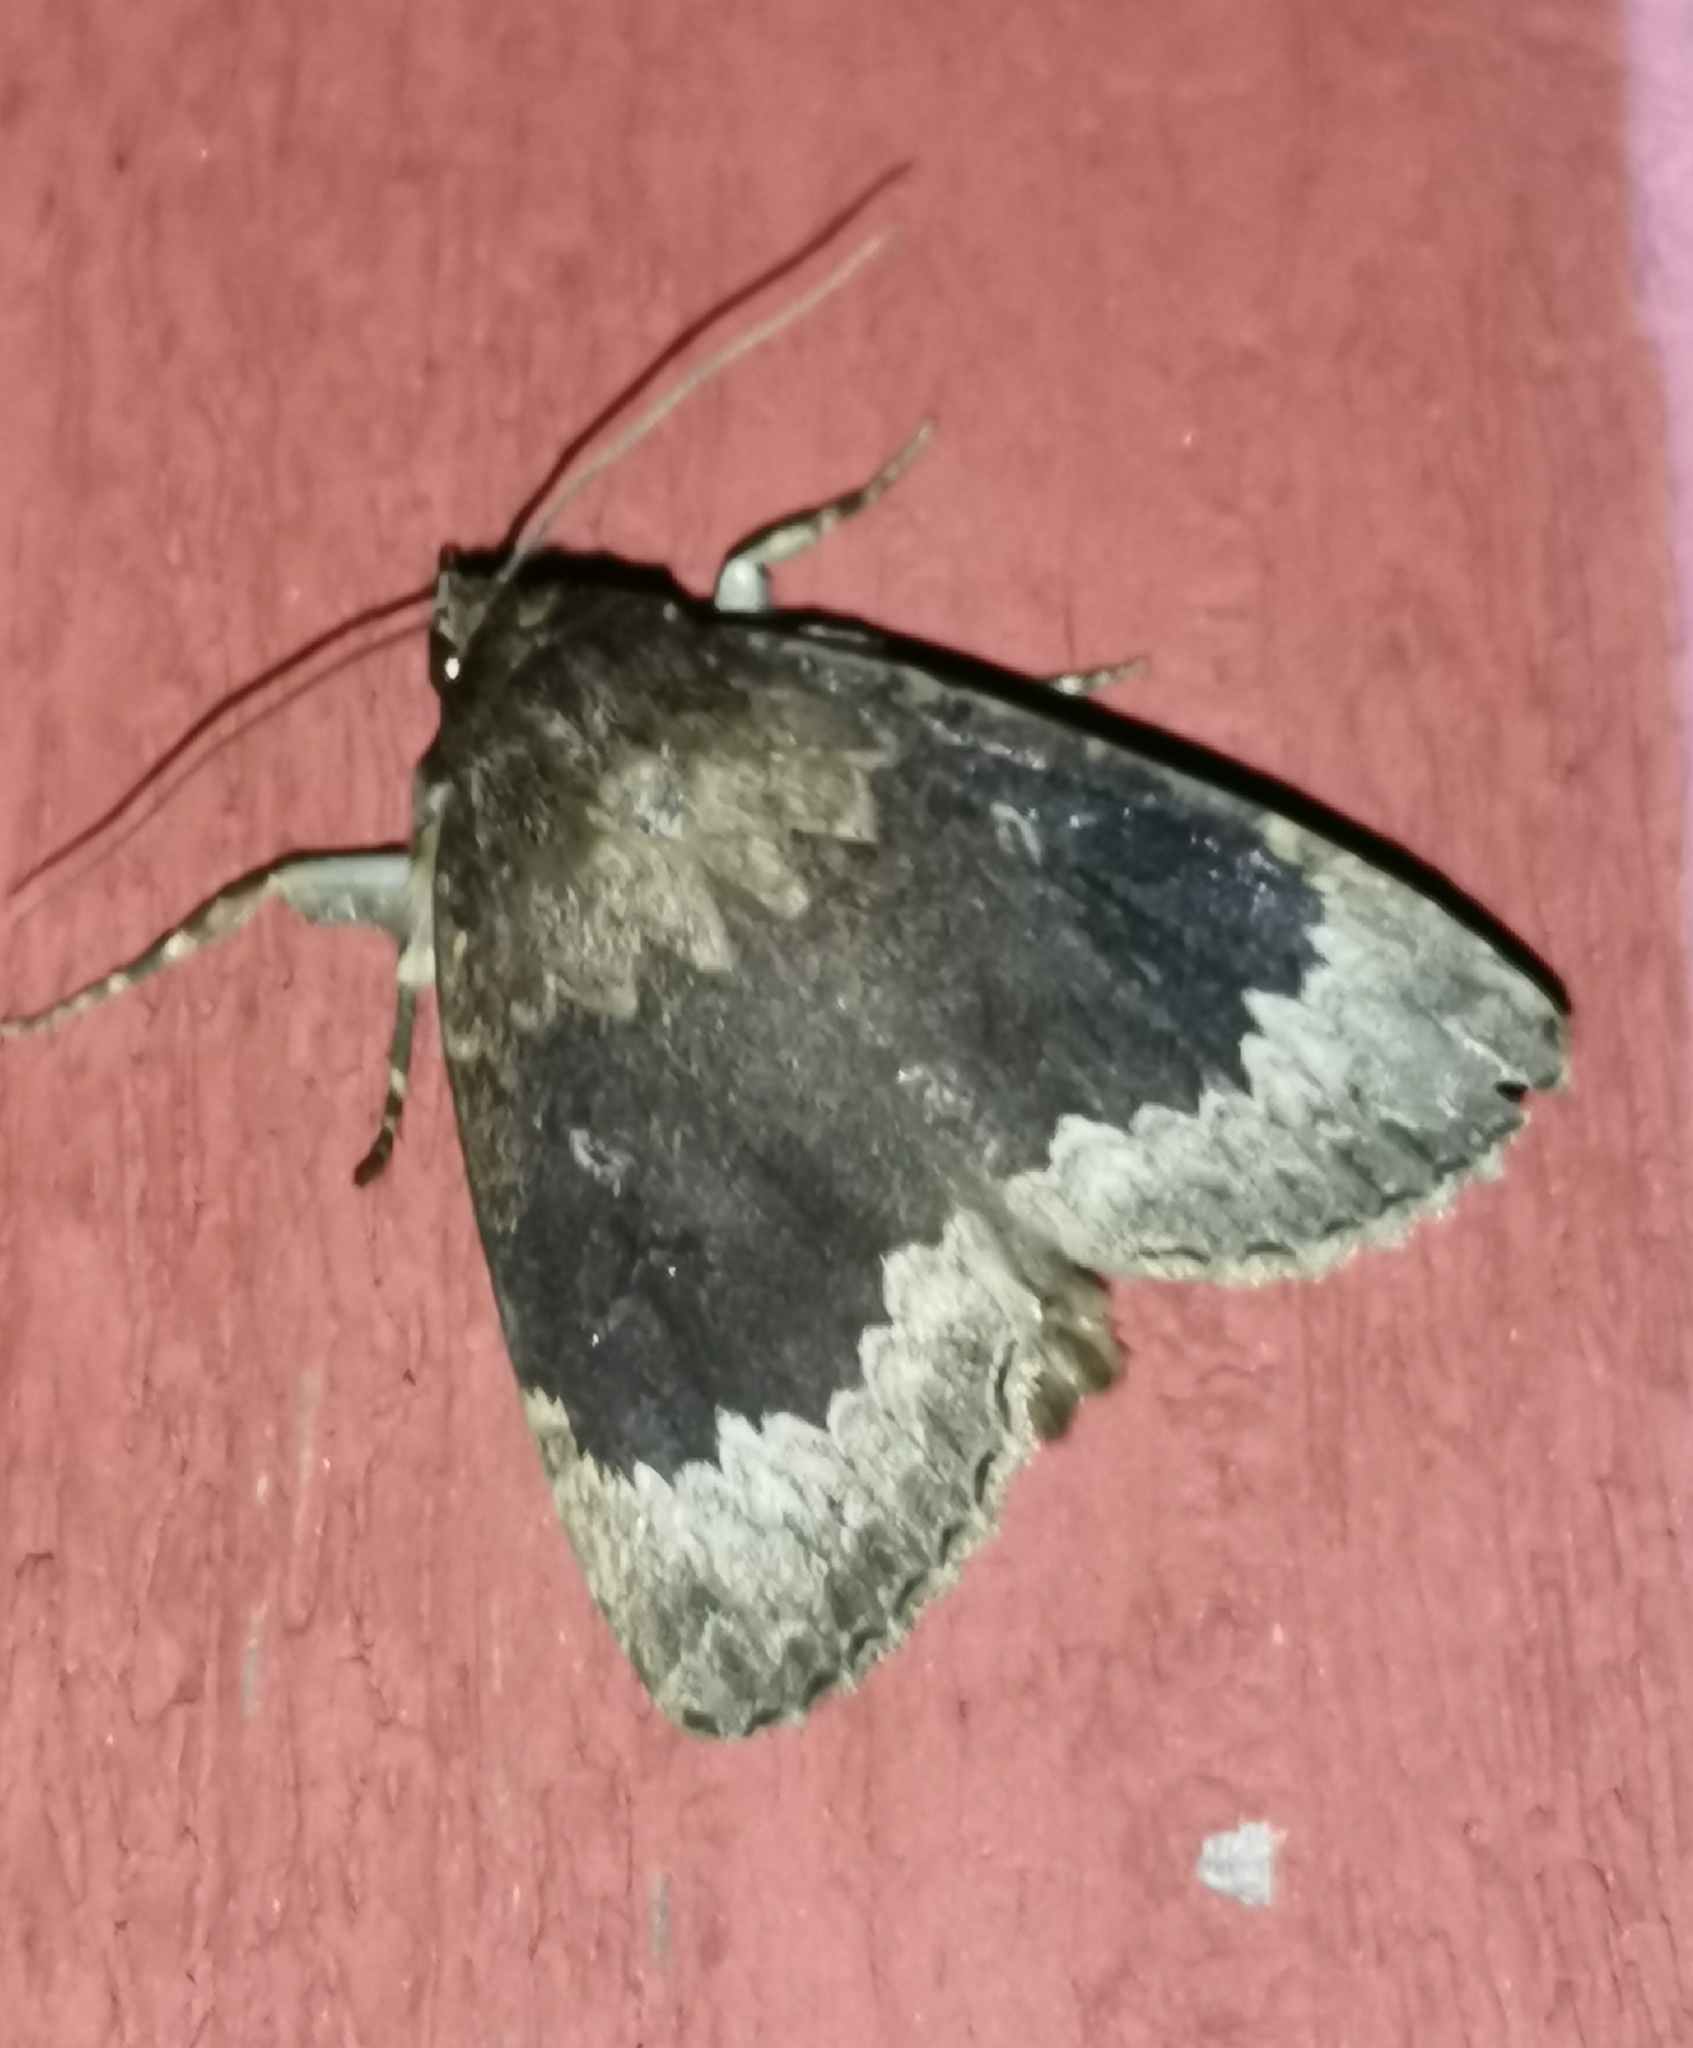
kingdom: Animalia
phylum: Arthropoda
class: Insecta
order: Lepidoptera
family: Noctuidae
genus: Amphipyra
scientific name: Amphipyra perflua
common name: Larger pale-tipped black moth
